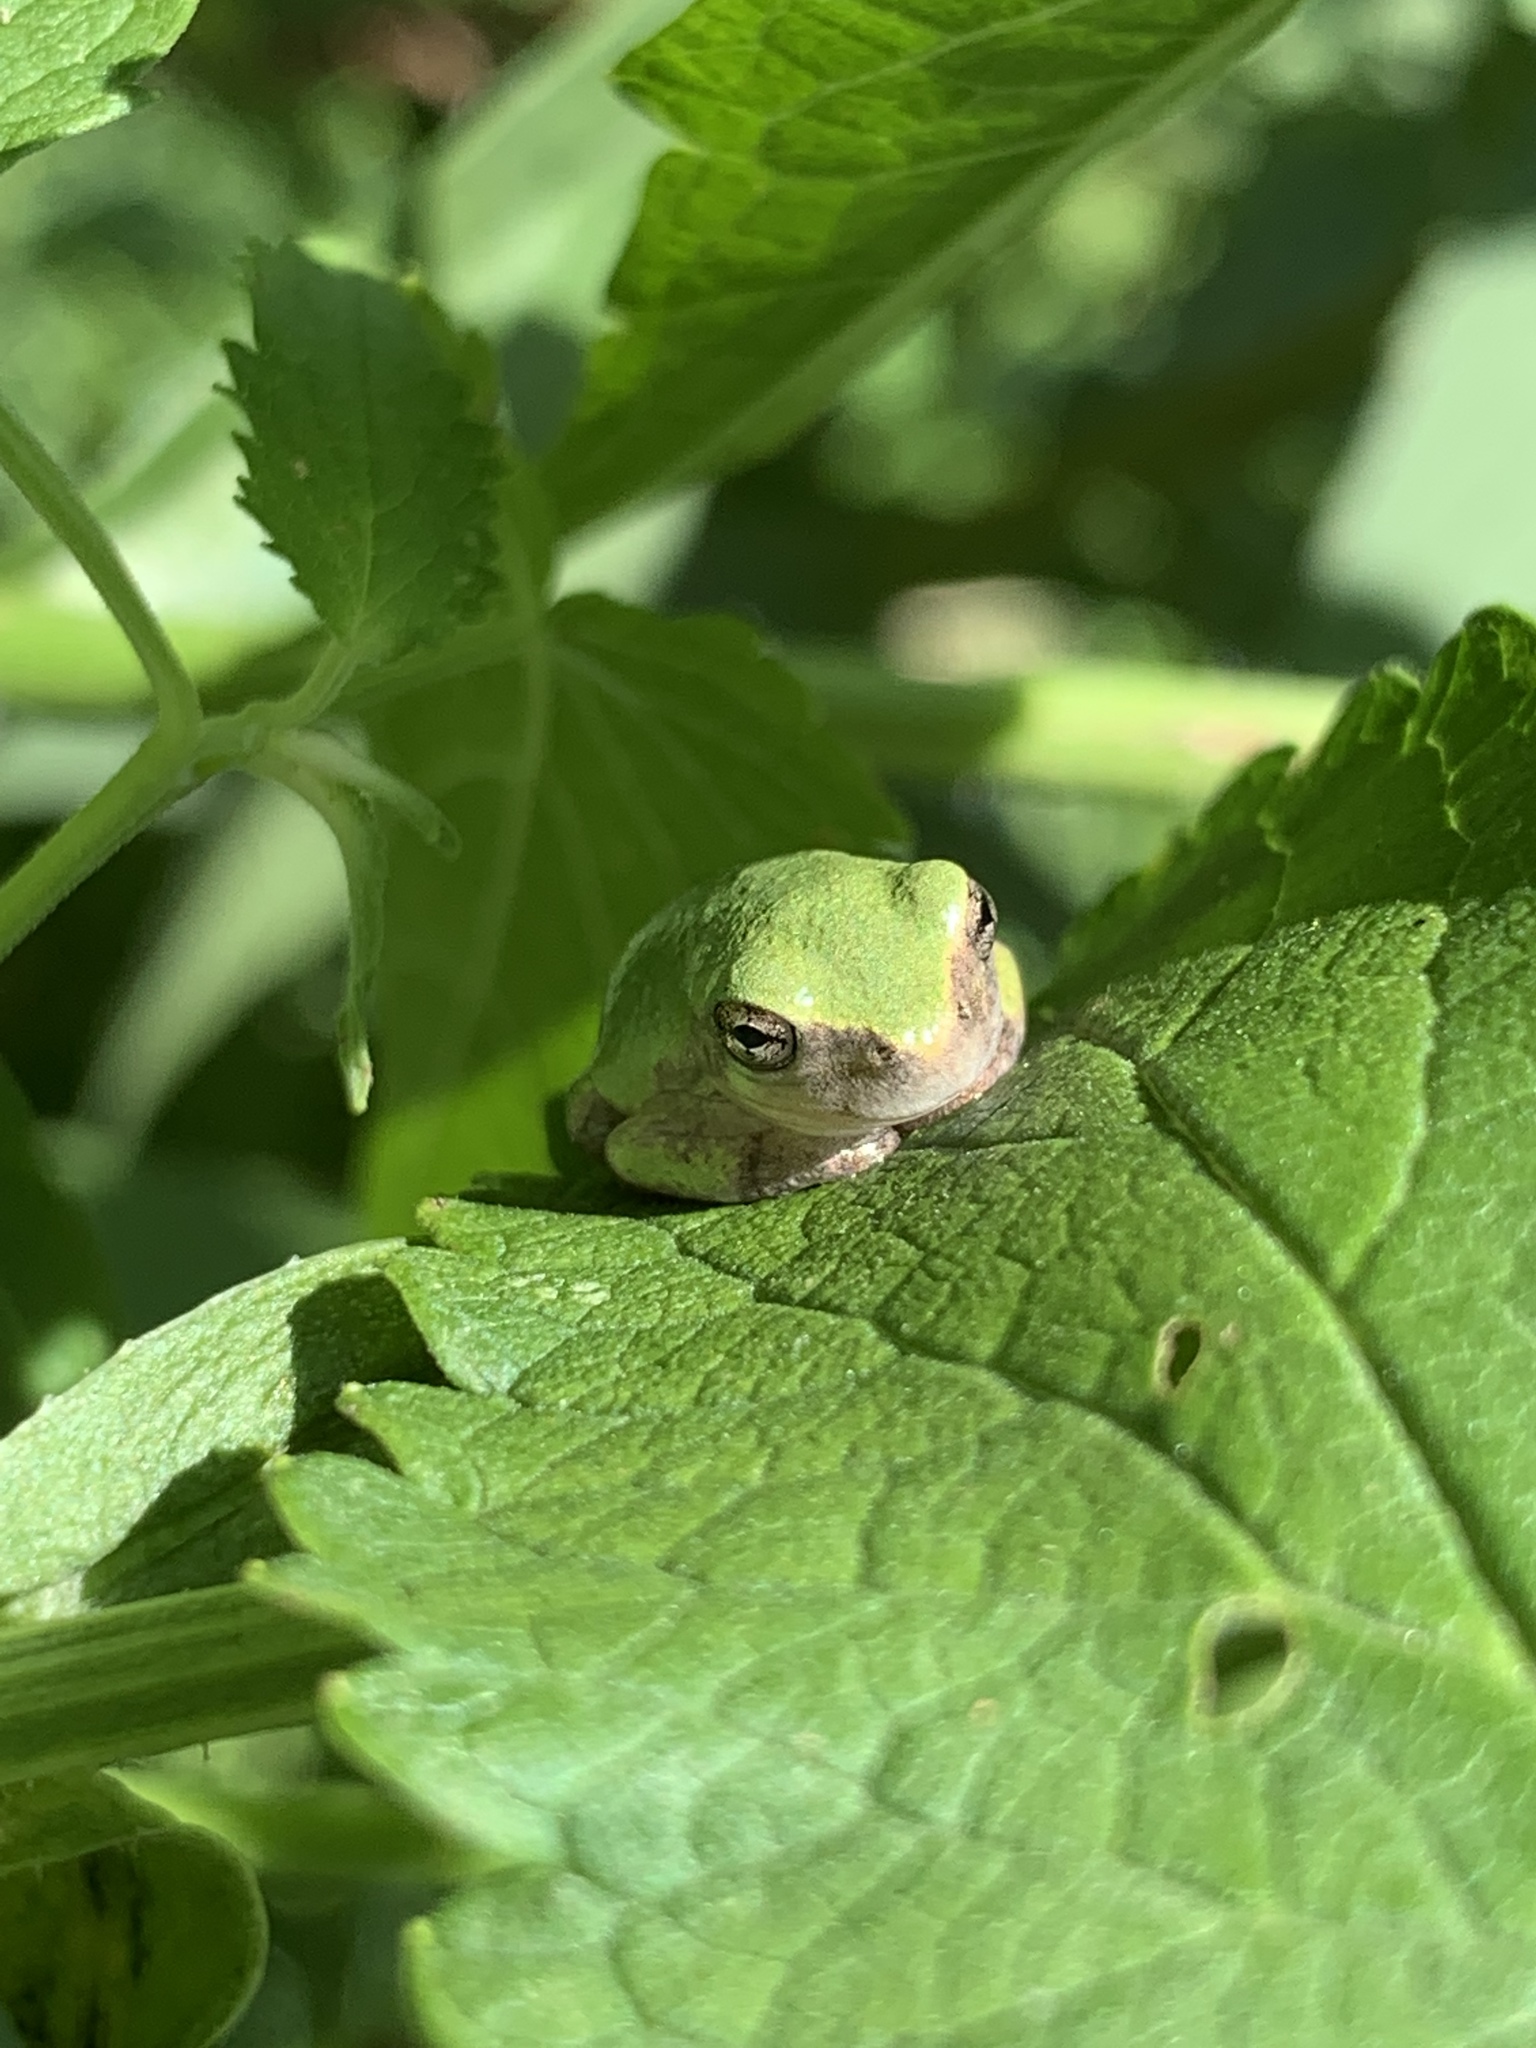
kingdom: Animalia
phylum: Chordata
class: Amphibia
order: Anura
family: Hylidae
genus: Dryophytes
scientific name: Dryophytes versicolor
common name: Gray treefrog
